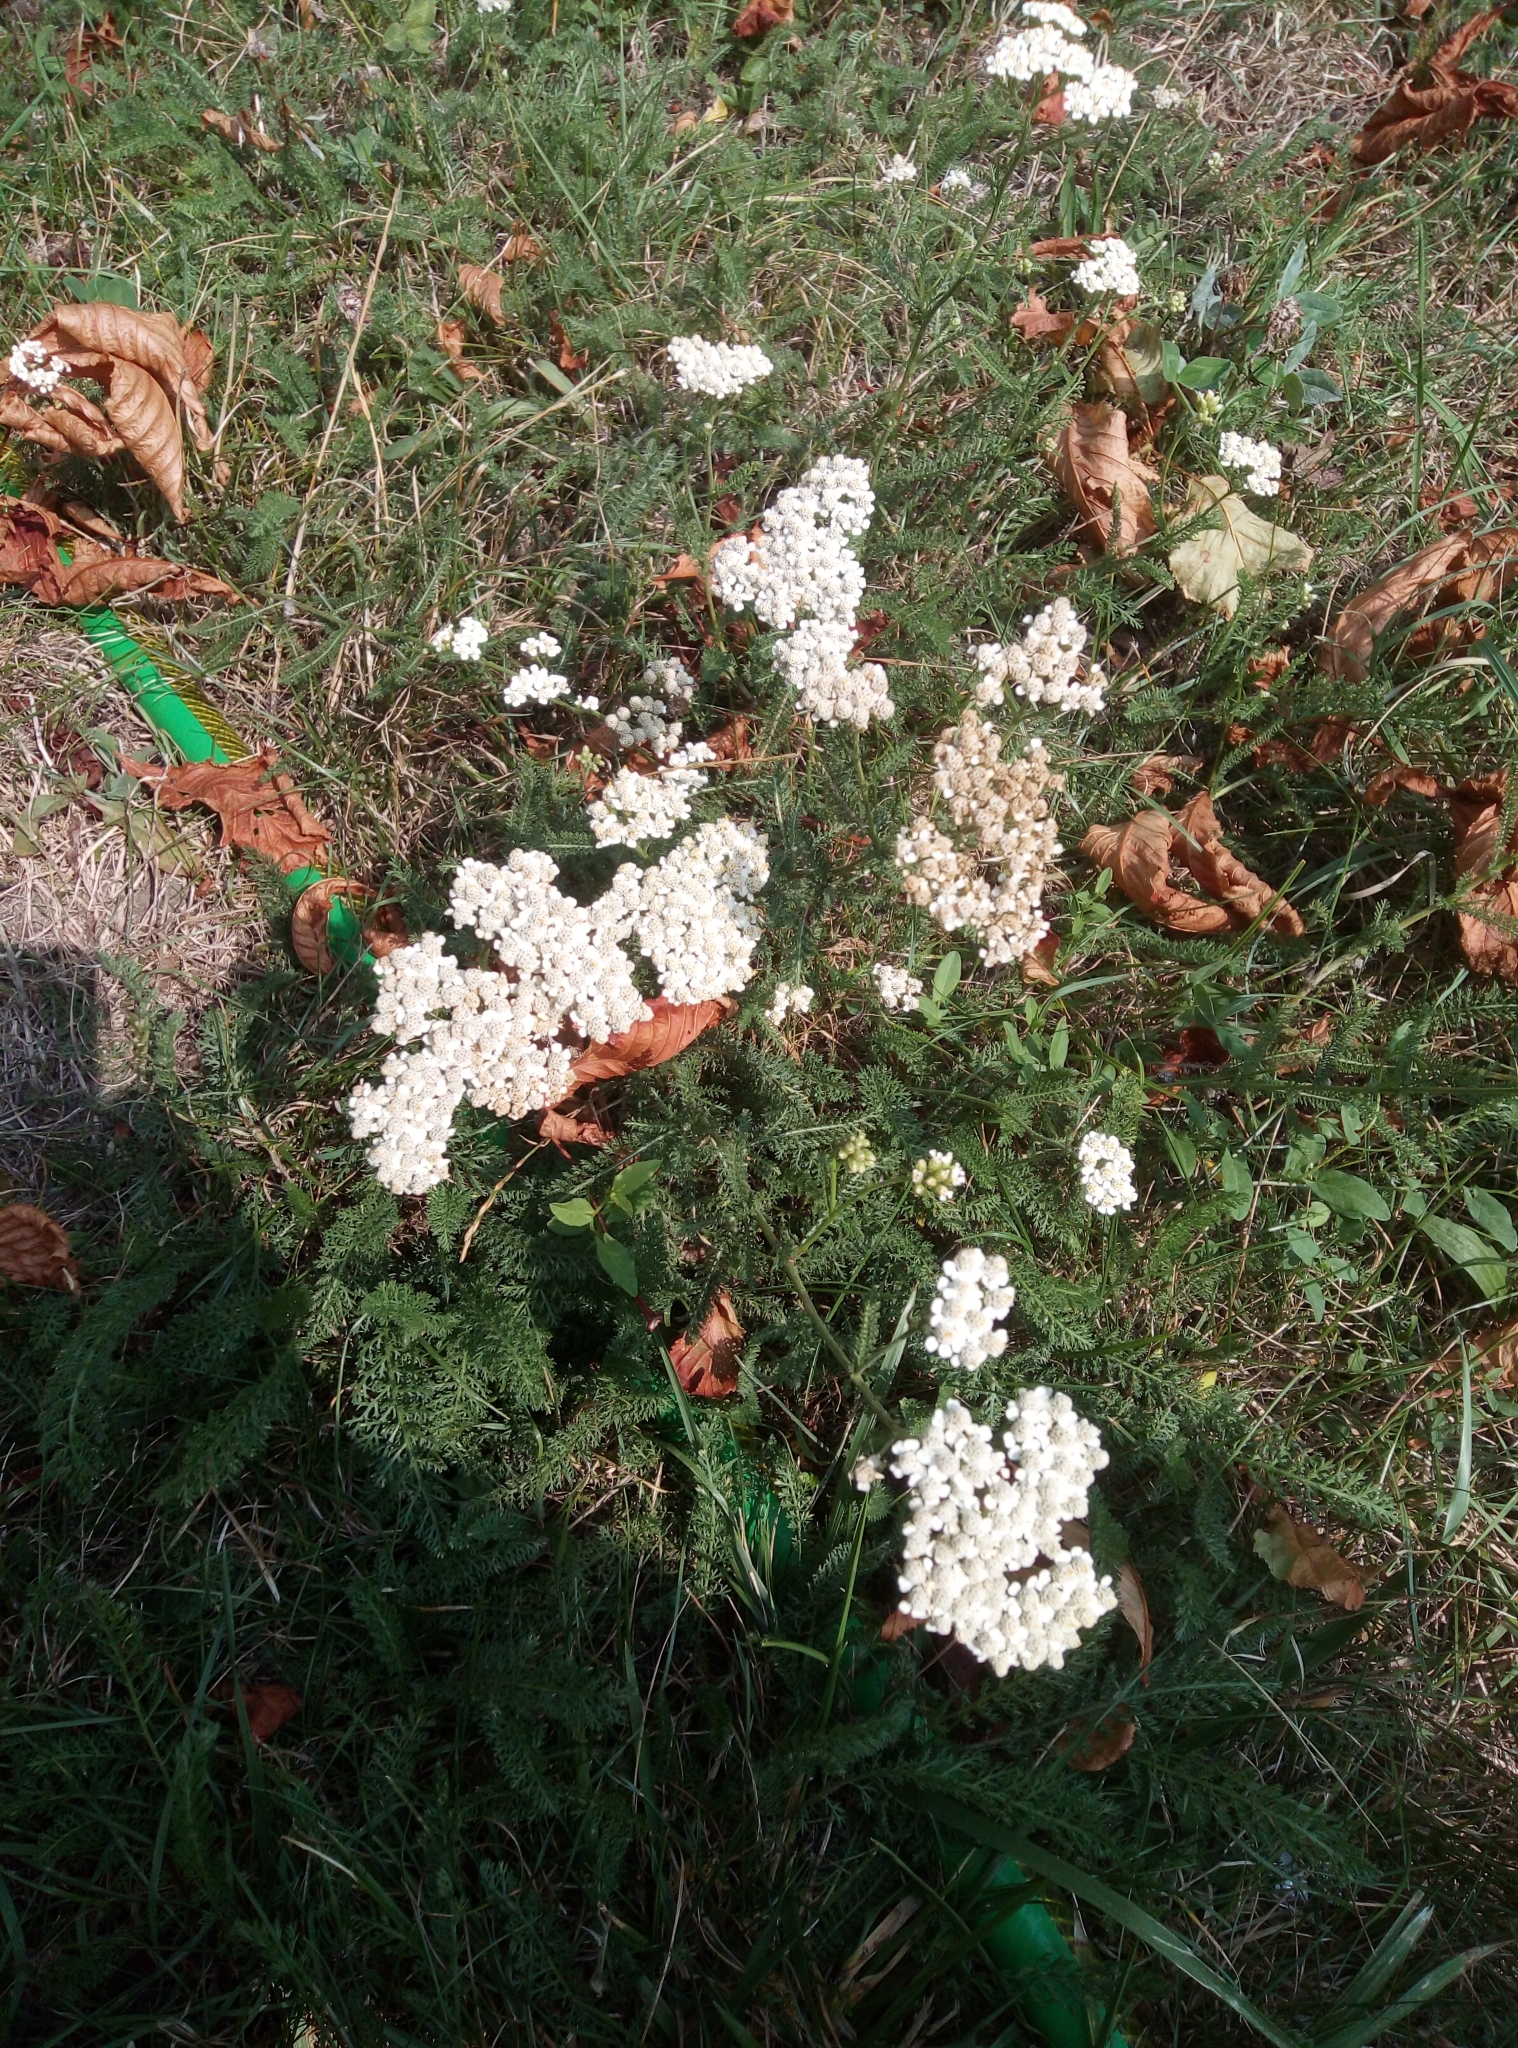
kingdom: Plantae
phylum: Tracheophyta
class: Magnoliopsida
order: Asterales
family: Asteraceae
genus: Achillea
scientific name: Achillea millefolium
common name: Yarrow
